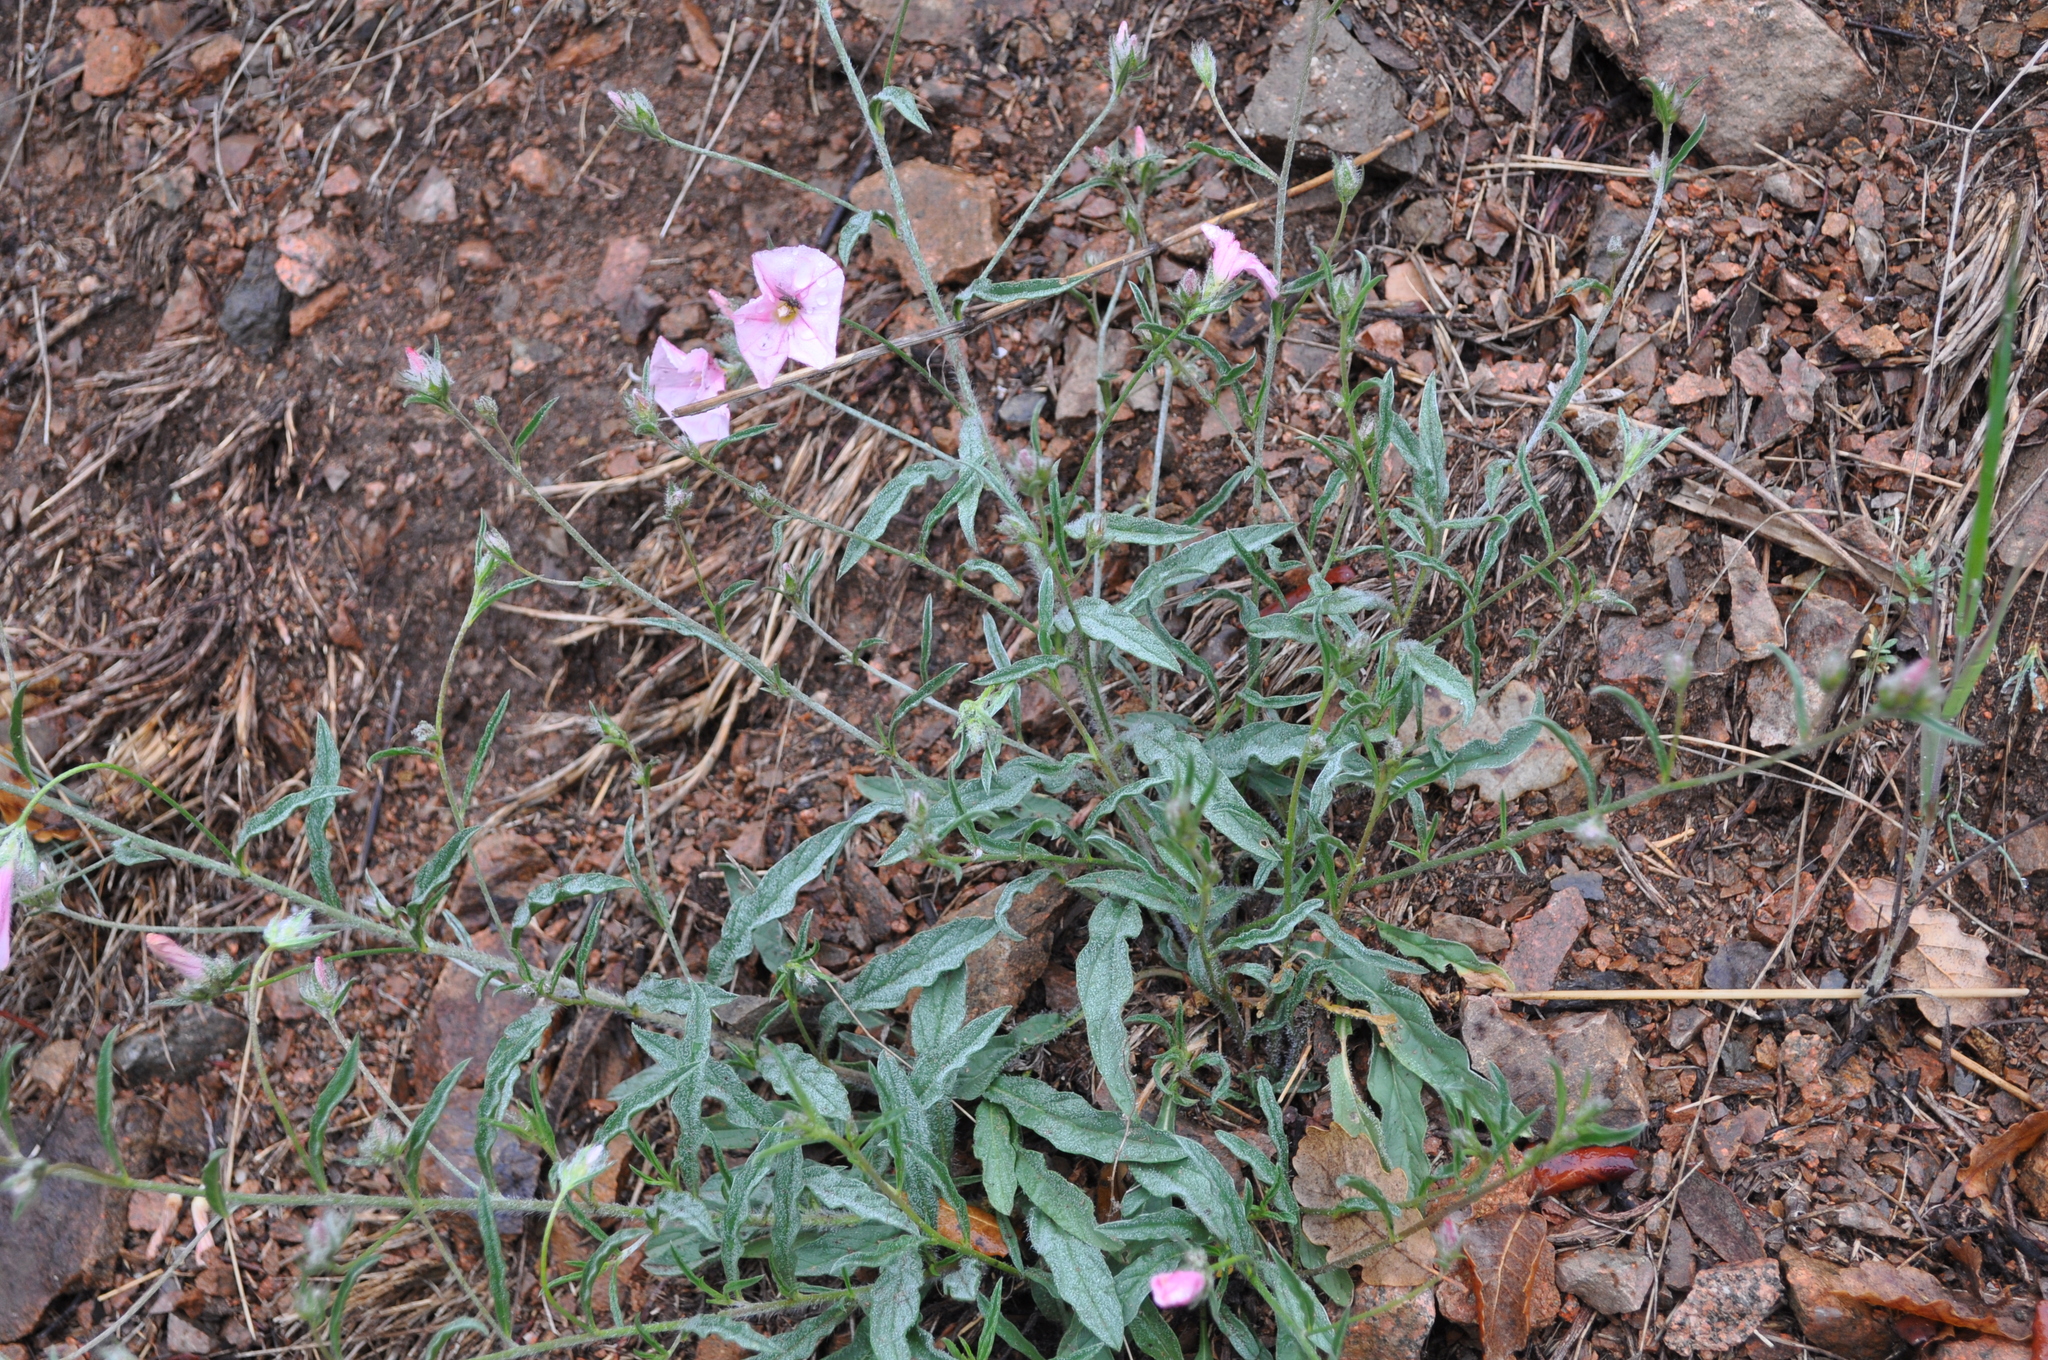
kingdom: Plantae
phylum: Tracheophyta
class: Magnoliopsida
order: Solanales
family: Convolvulaceae
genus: Convolvulus
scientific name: Convolvulus cantabrica
